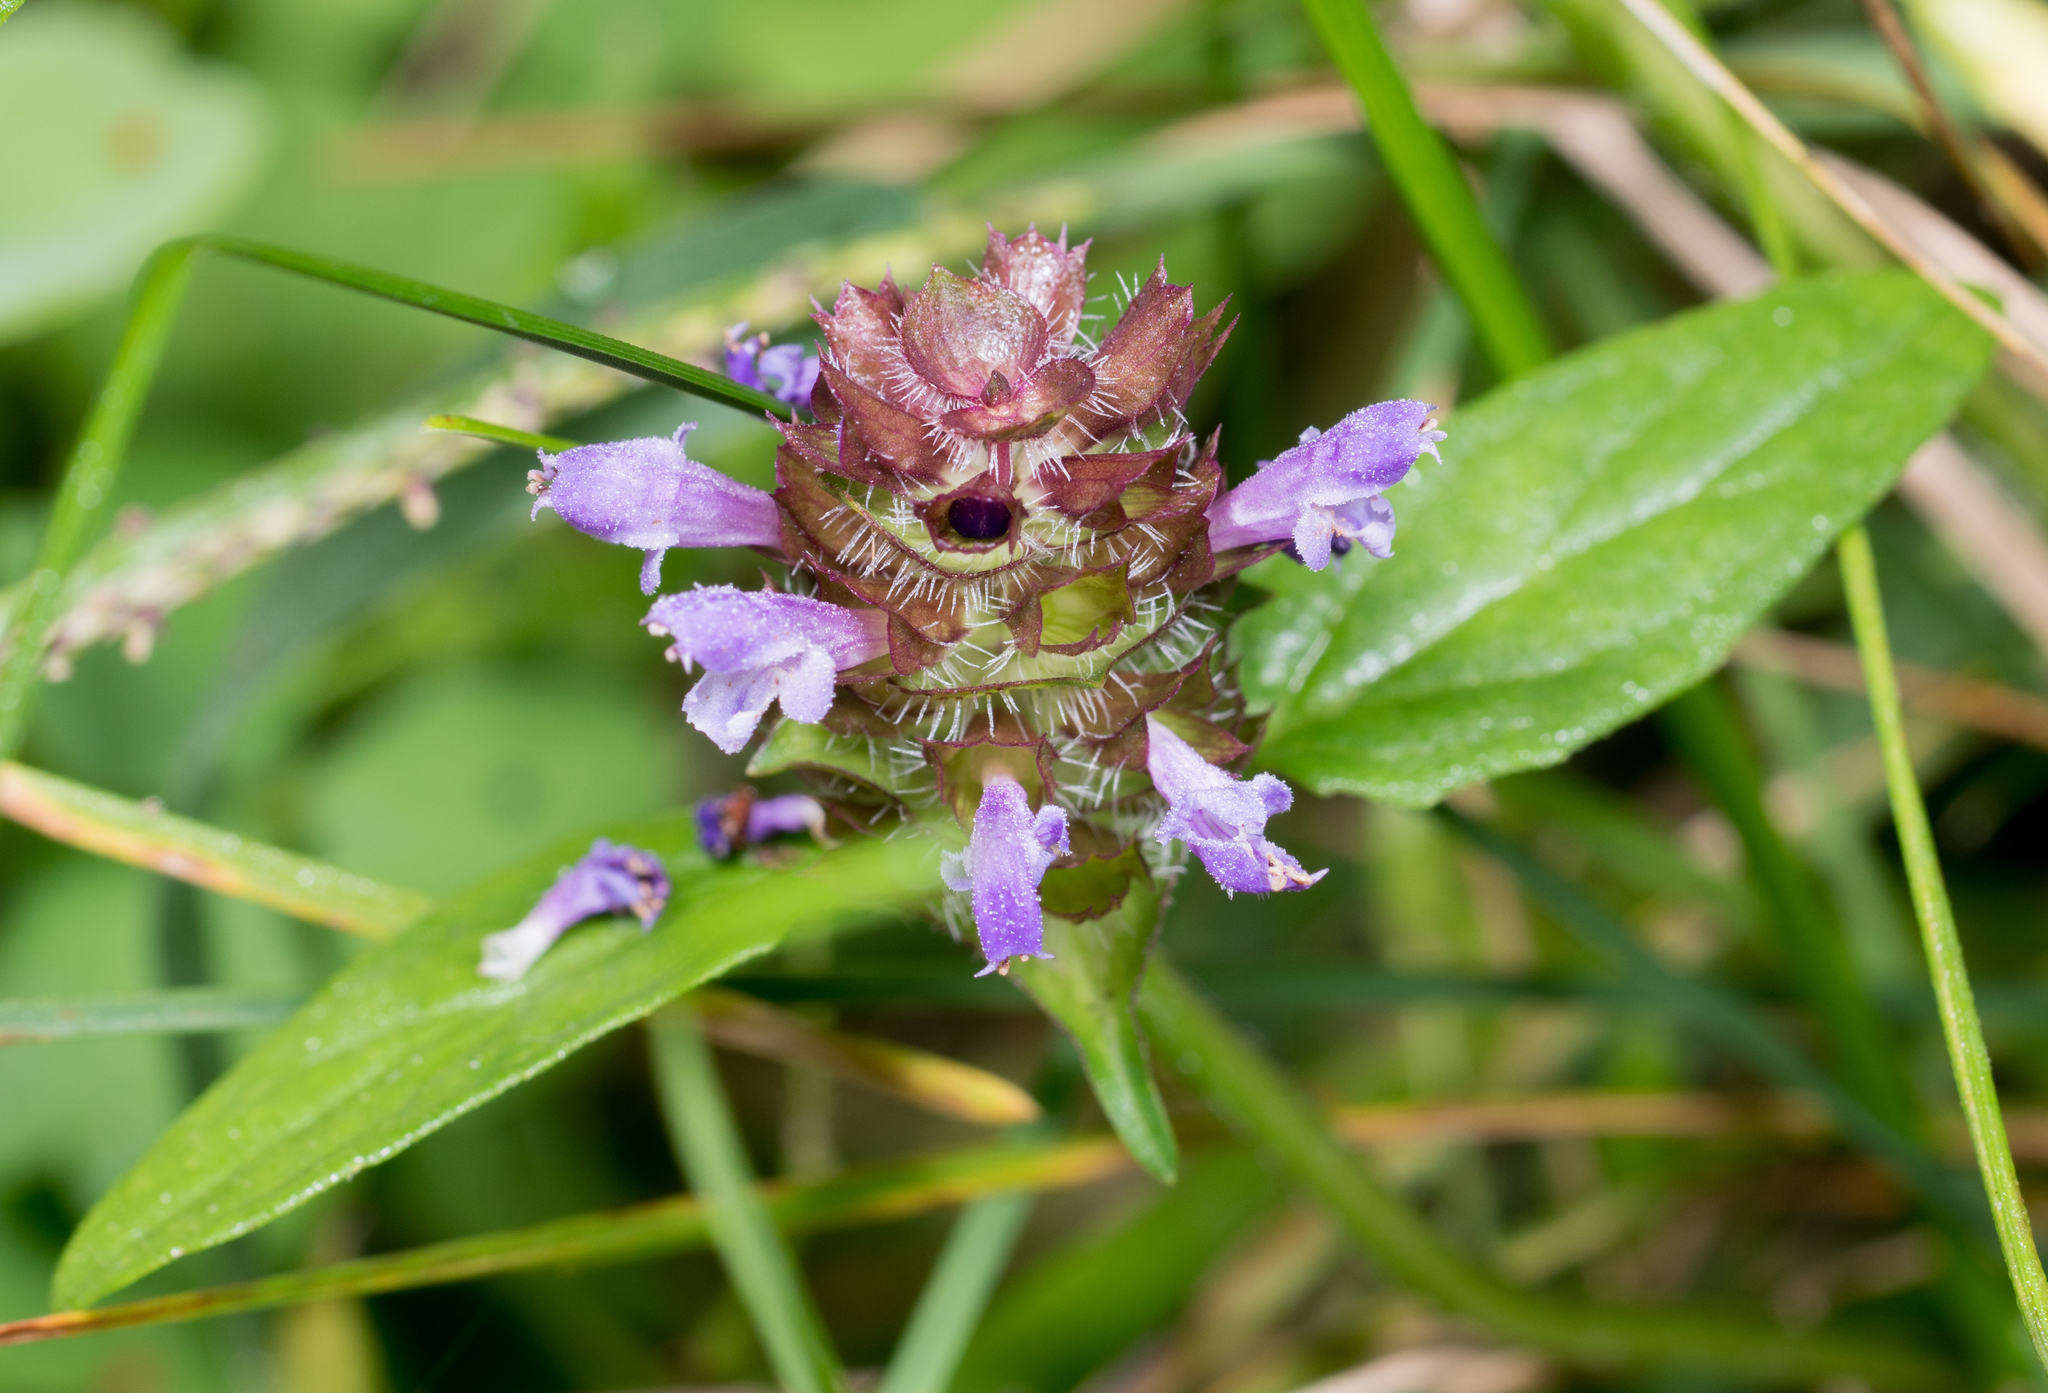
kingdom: Plantae
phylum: Tracheophyta
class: Magnoliopsida
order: Lamiales
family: Lamiaceae
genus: Prunella
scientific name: Prunella vulgaris
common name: Heal-all
